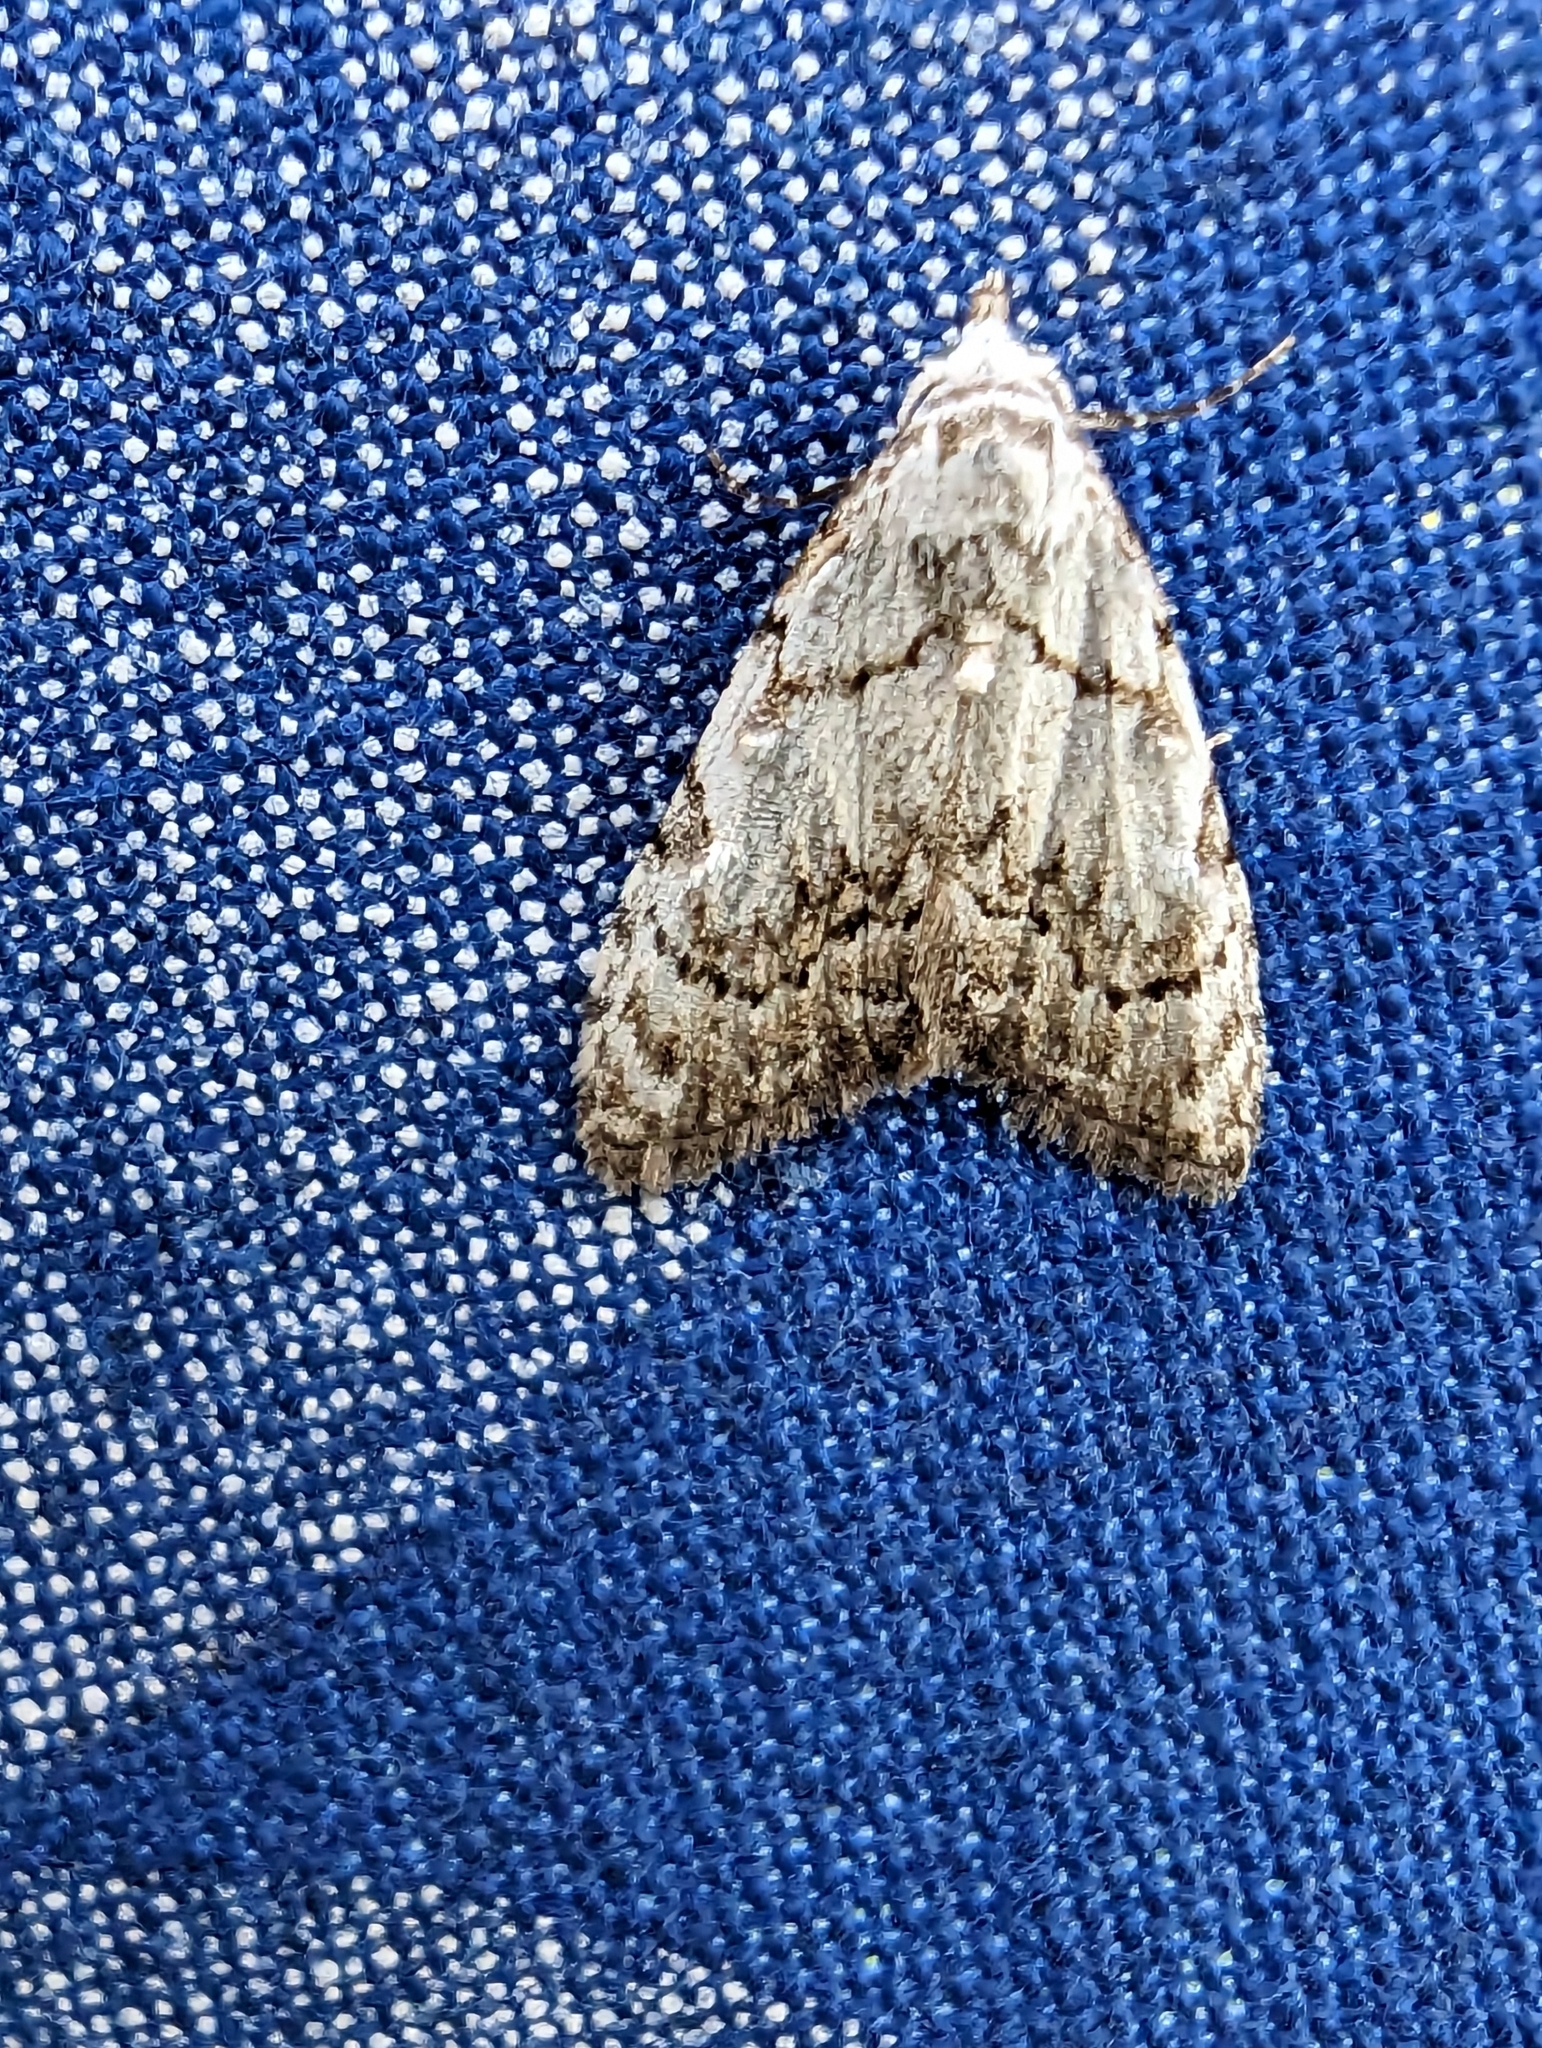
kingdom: Animalia
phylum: Arthropoda
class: Insecta
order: Lepidoptera
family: Nolidae
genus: Nola
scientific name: Nola confusalis
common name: Least black arches
